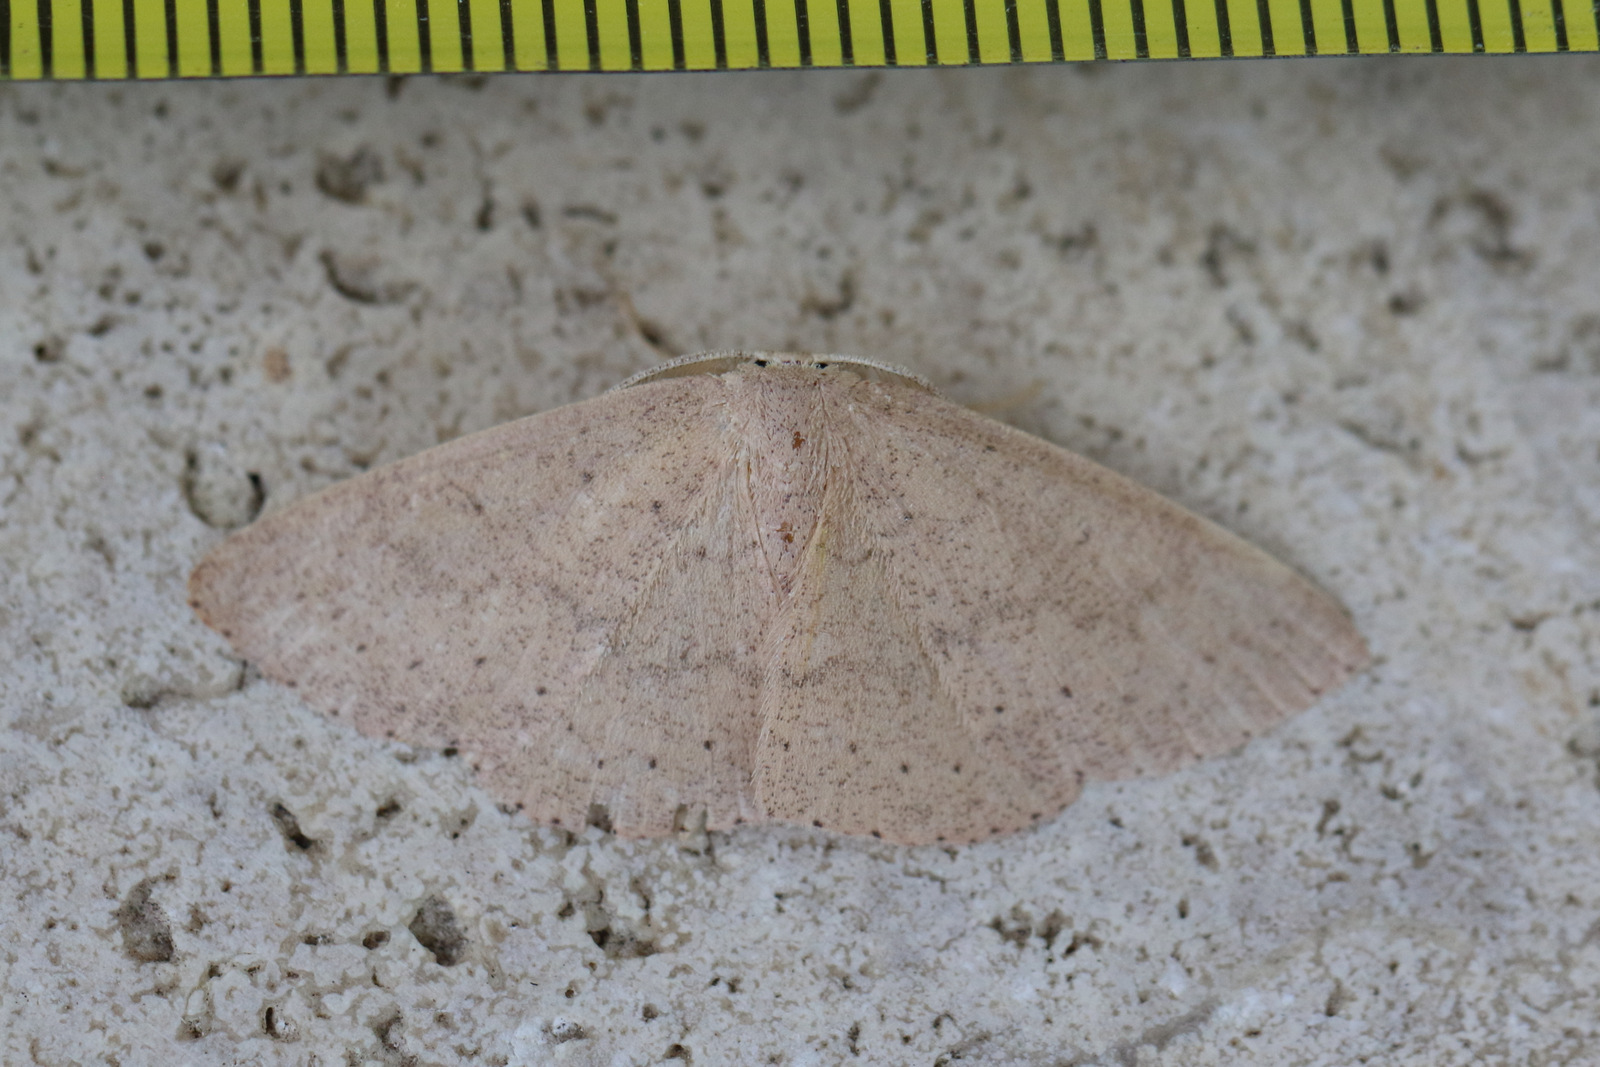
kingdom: Animalia
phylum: Arthropoda
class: Insecta
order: Lepidoptera
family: Geometridae
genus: Cyclophora
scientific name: Cyclophora obstataria
